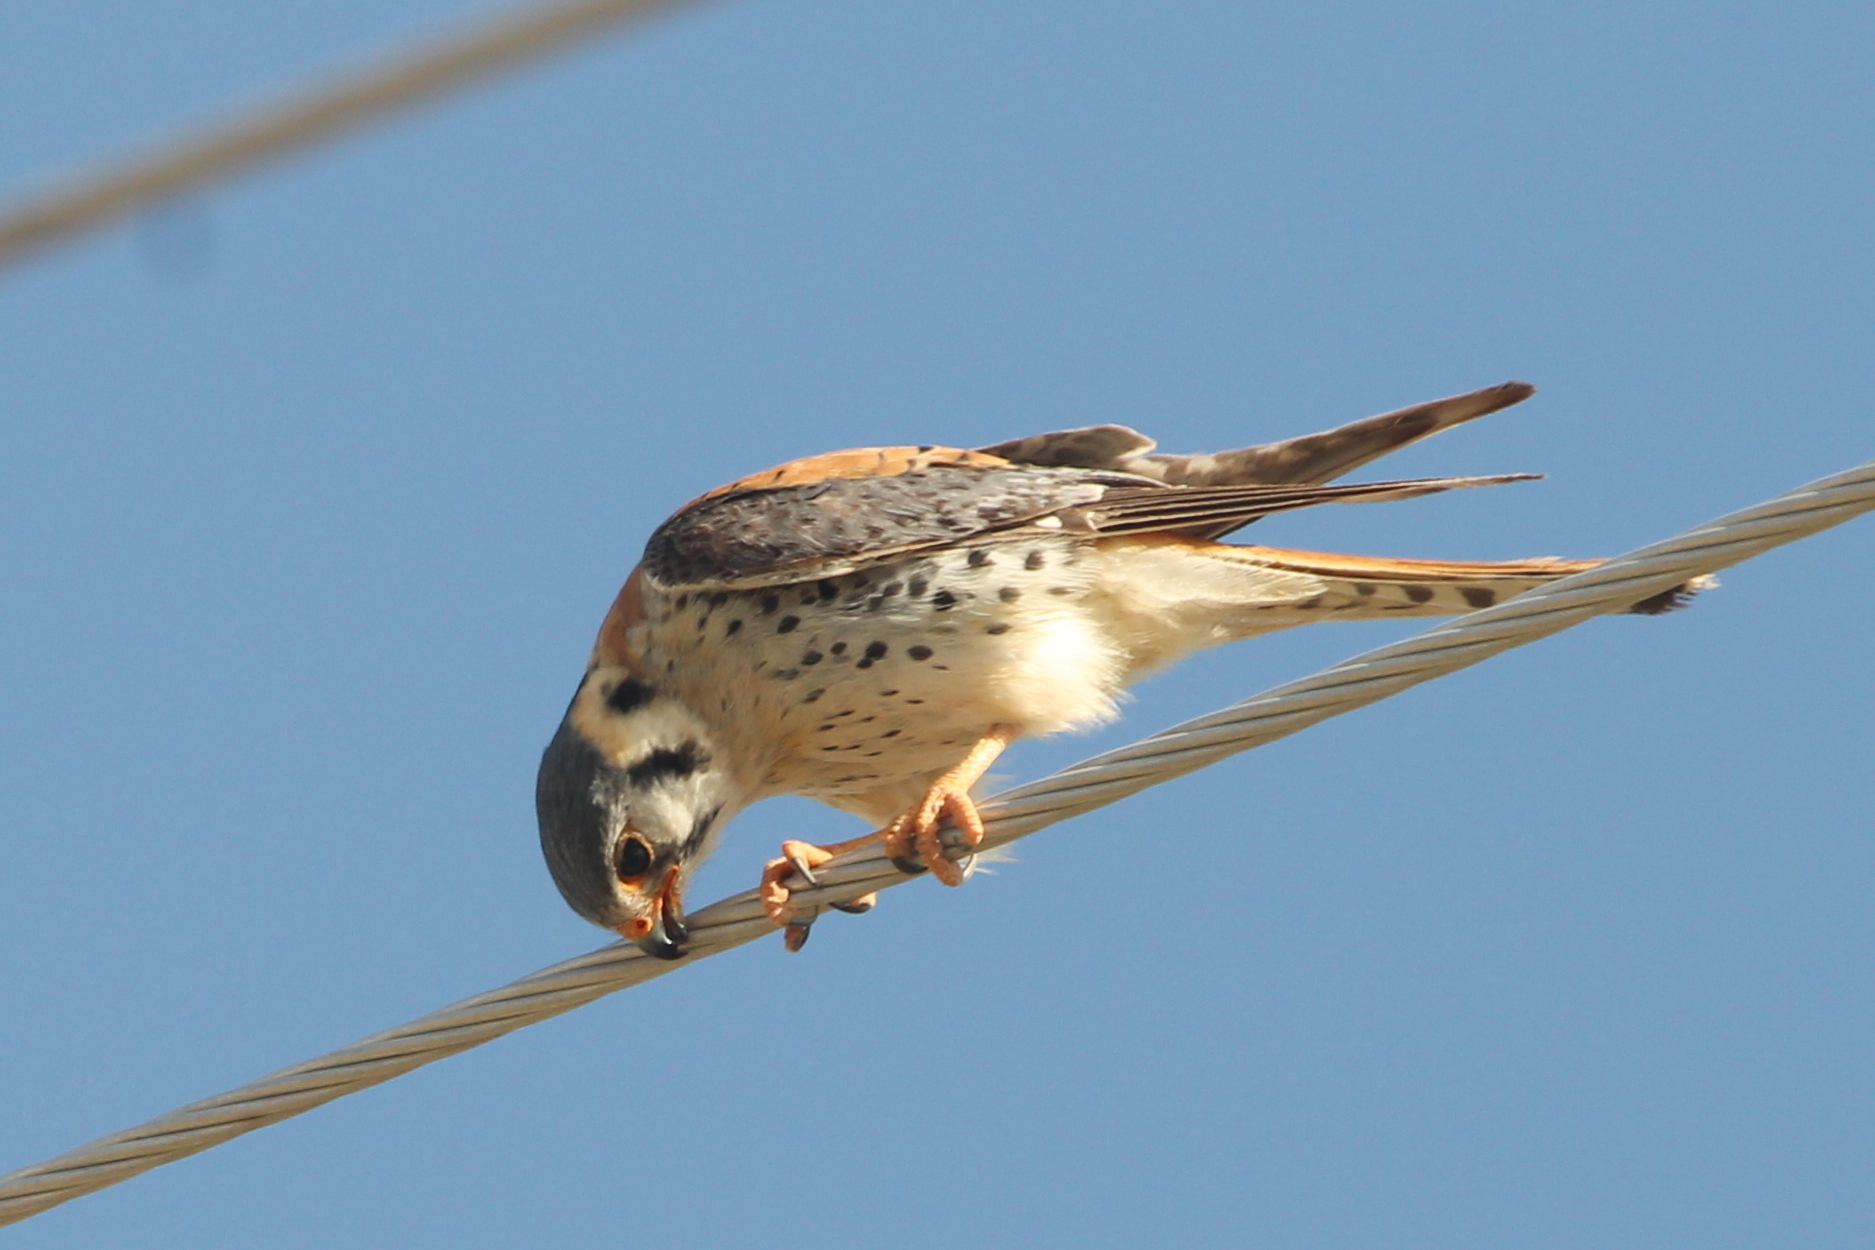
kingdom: Animalia
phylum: Chordata
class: Aves
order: Falconiformes
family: Falconidae
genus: Falco
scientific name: Falco sparverius
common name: American kestrel
